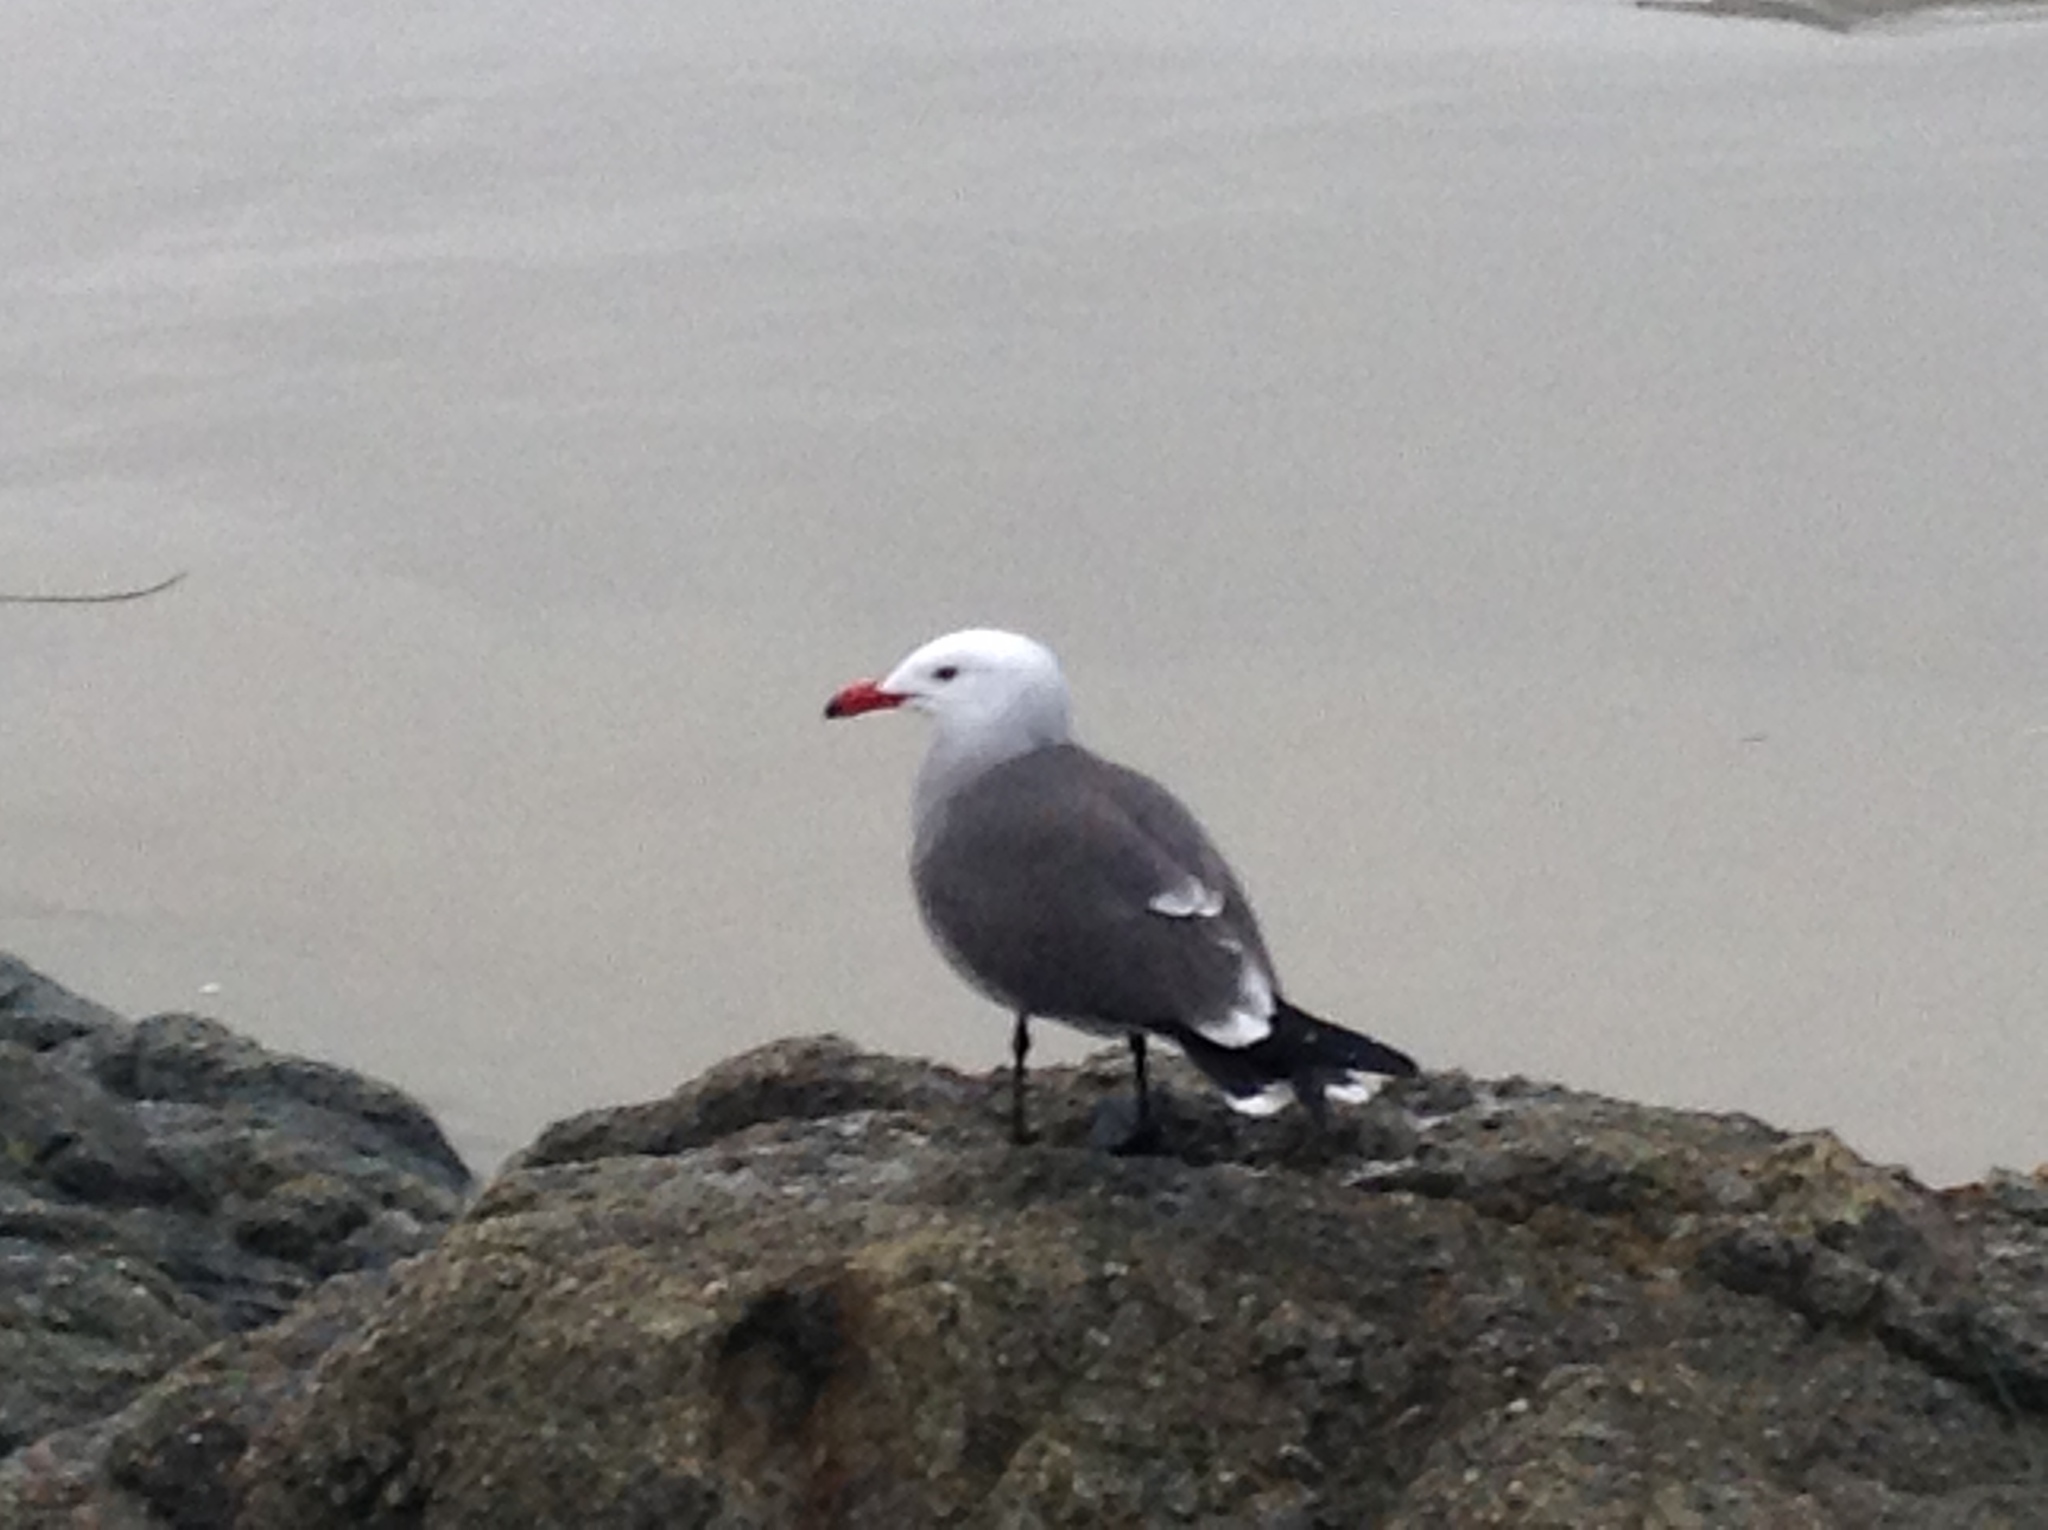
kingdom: Animalia
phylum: Chordata
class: Aves
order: Charadriiformes
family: Laridae
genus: Larus
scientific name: Larus heermanni
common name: Heermann's gull
